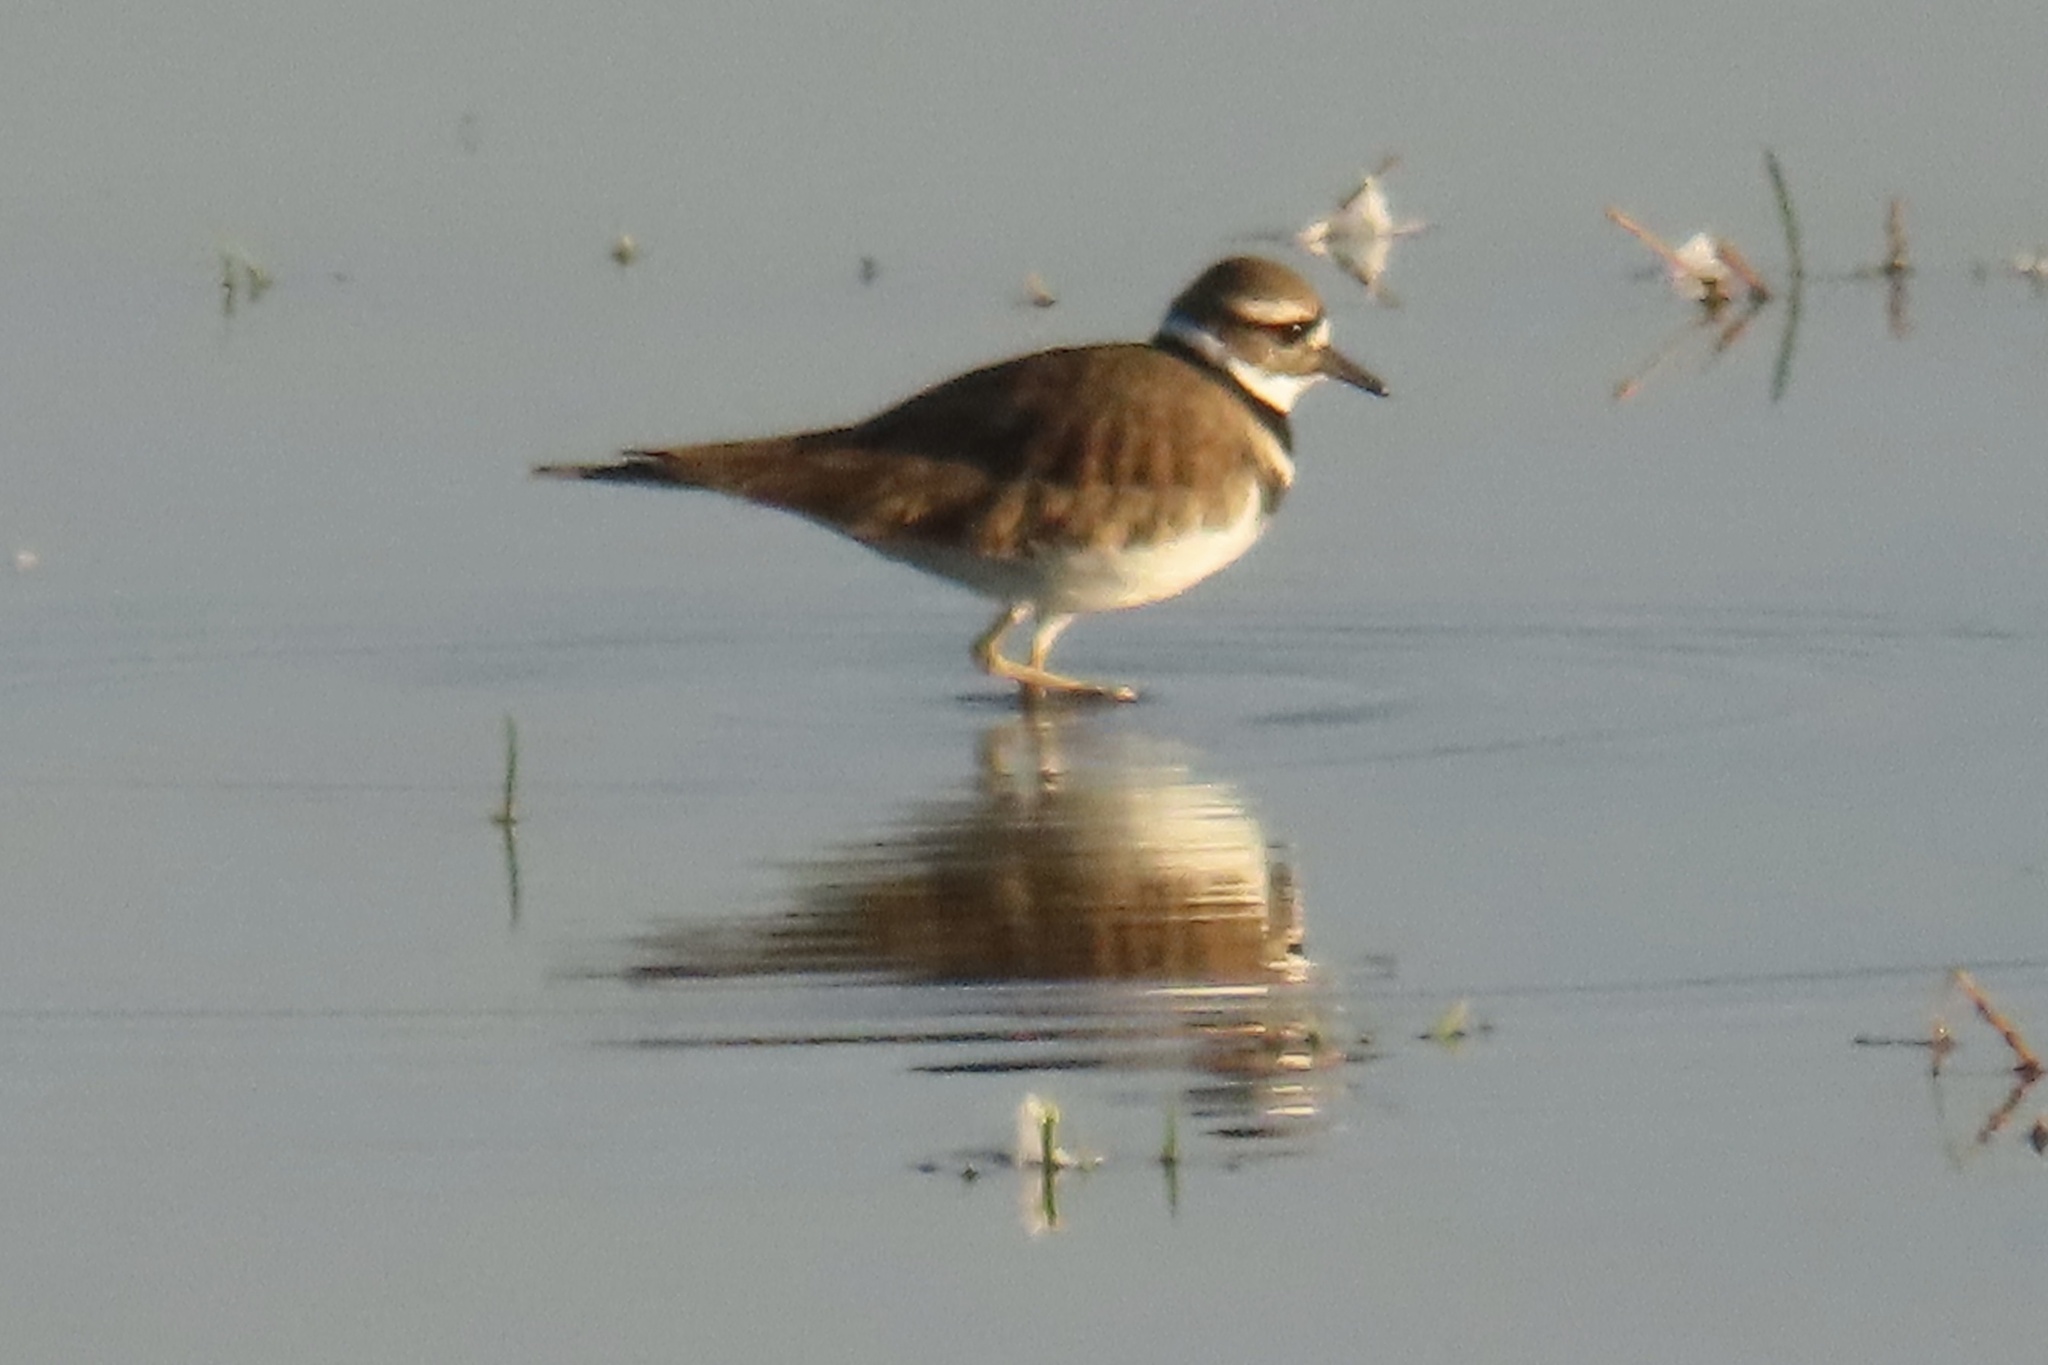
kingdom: Animalia
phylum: Chordata
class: Aves
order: Charadriiformes
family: Charadriidae
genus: Charadrius
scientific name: Charadrius vociferus
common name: Killdeer
